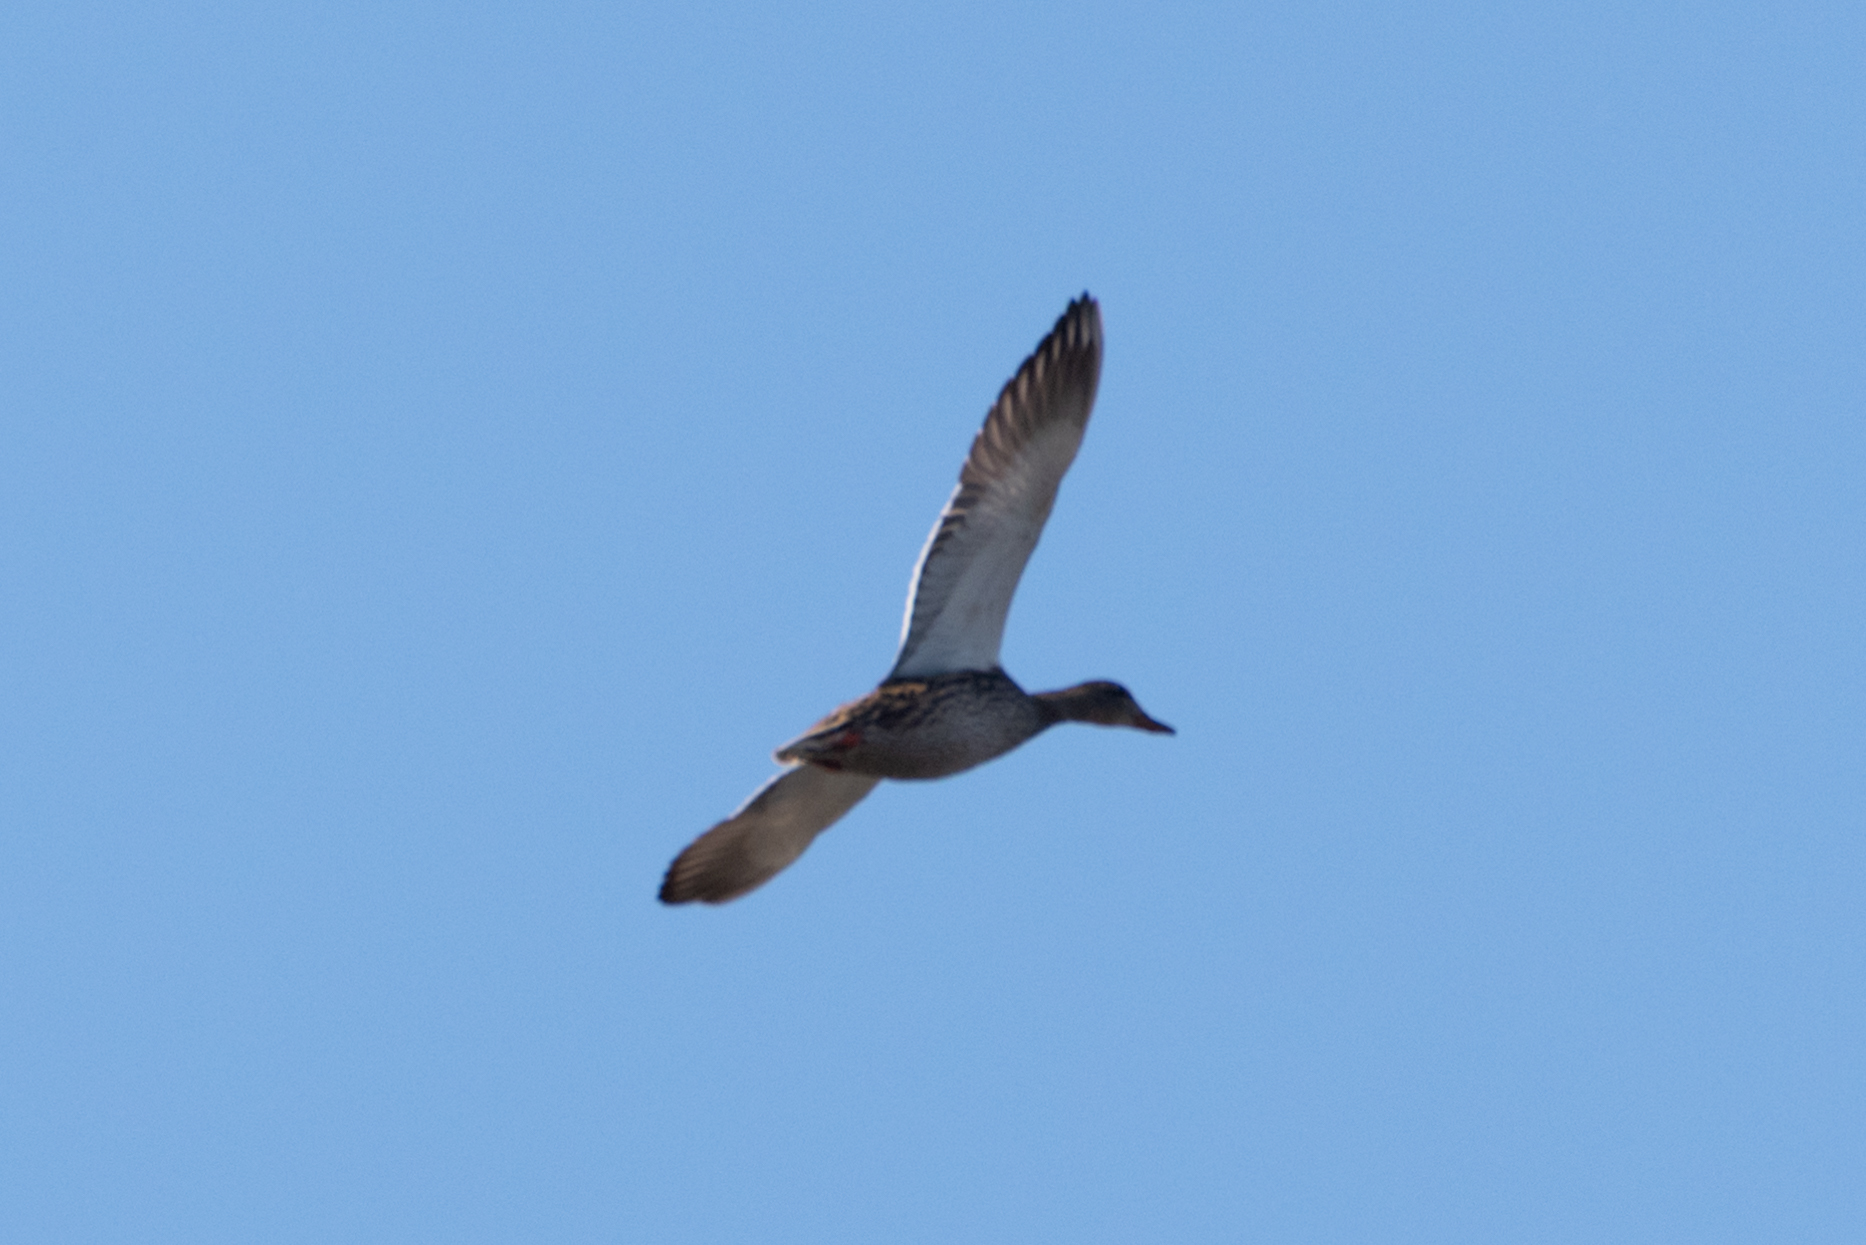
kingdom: Animalia
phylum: Chordata
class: Aves
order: Anseriformes
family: Anatidae
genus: Anas
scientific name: Anas platyrhynchos
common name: Mallard
